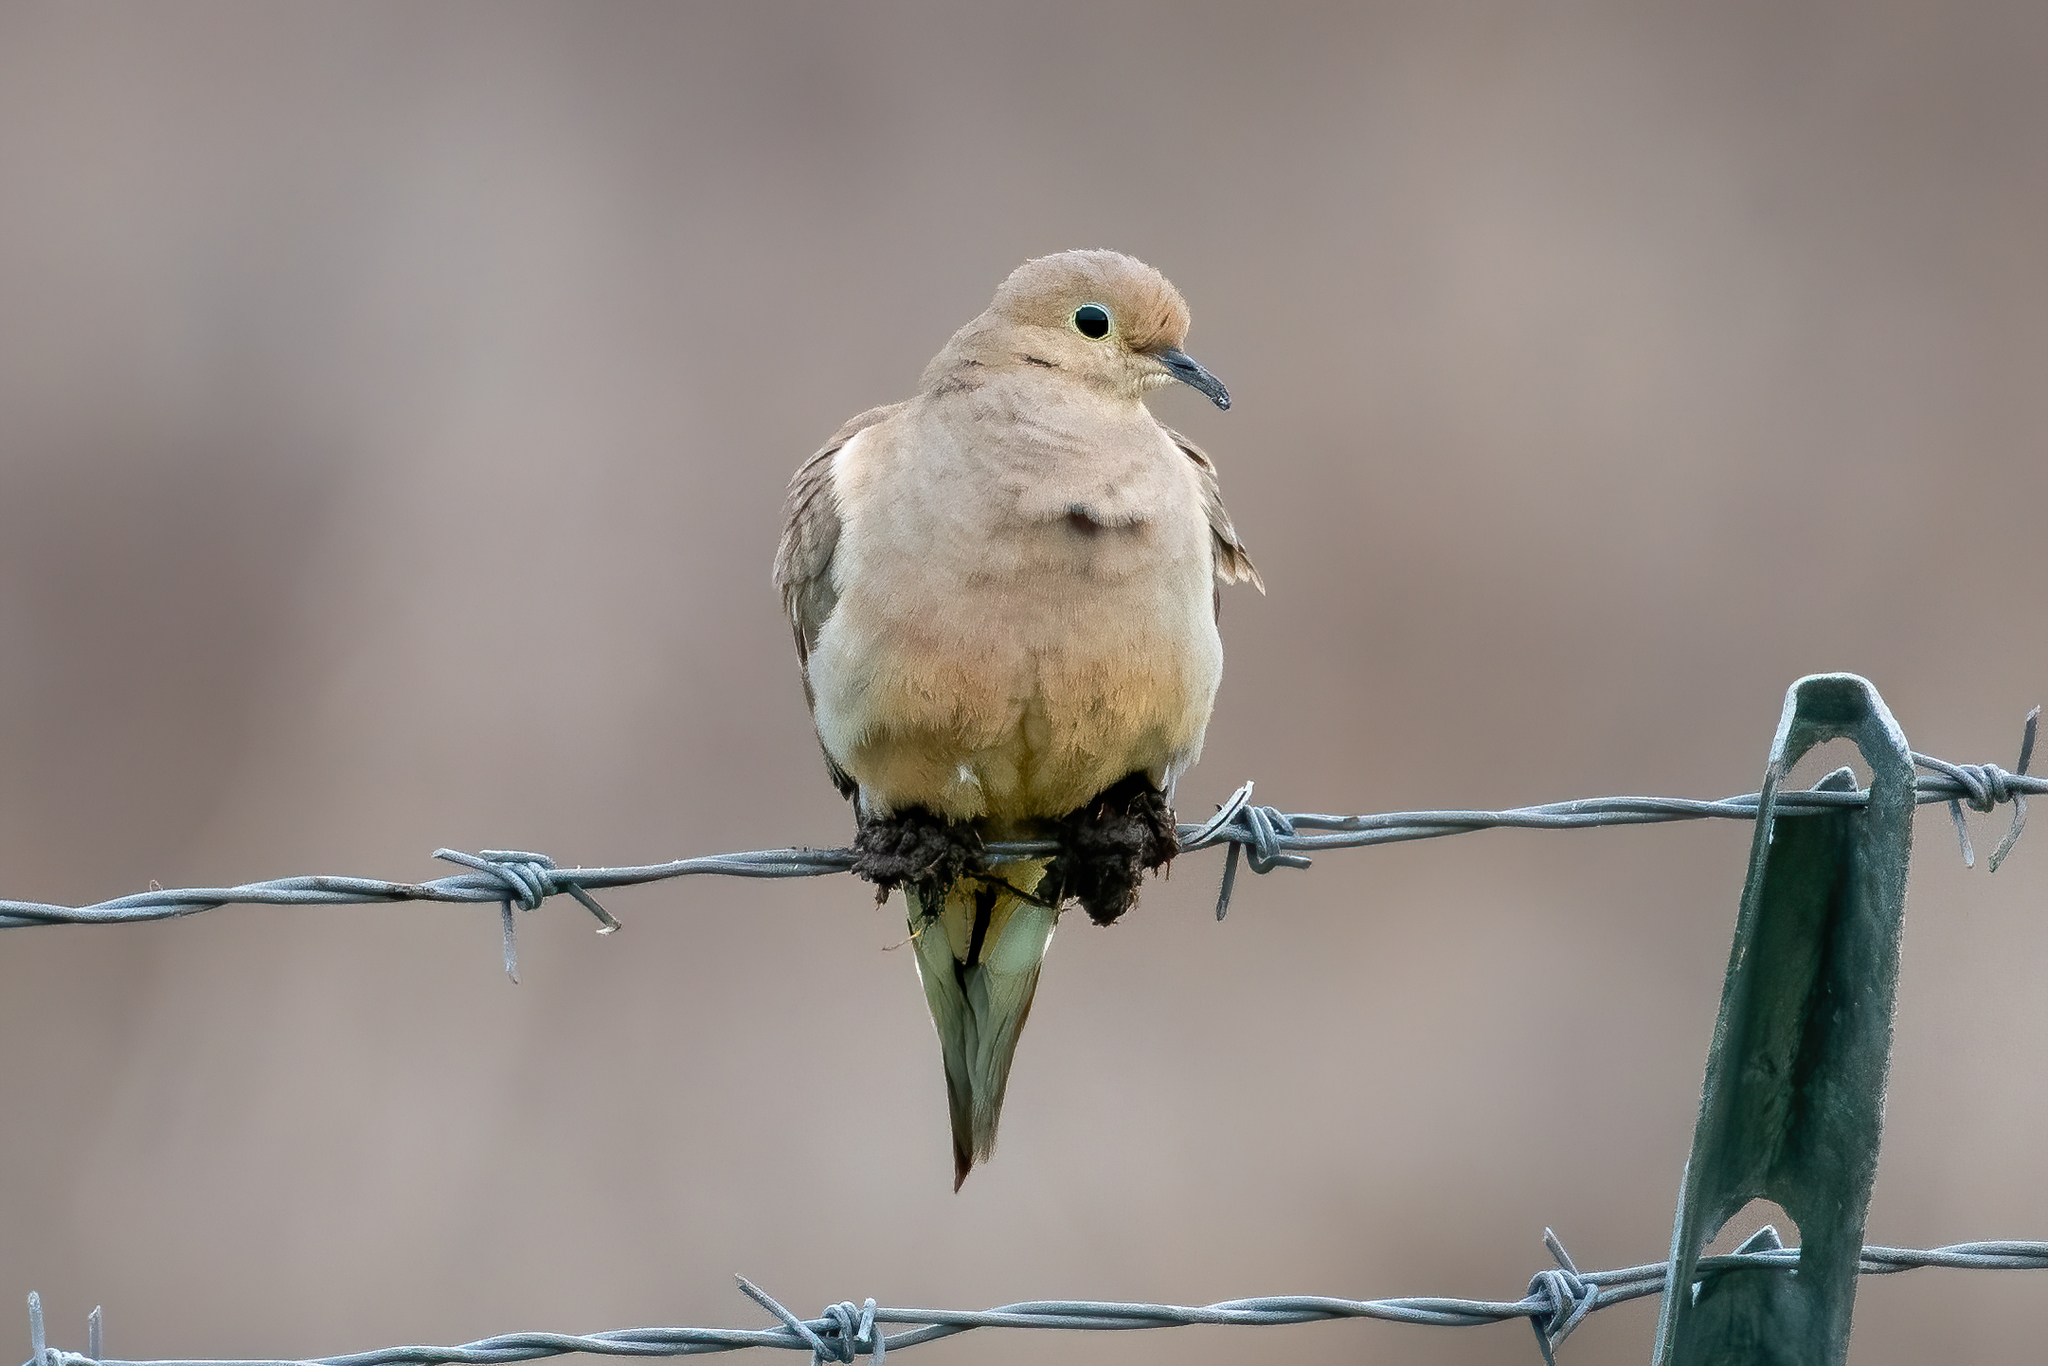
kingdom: Animalia
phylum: Chordata
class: Aves
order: Columbiformes
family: Columbidae
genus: Zenaida
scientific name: Zenaida macroura
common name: Mourning dove
